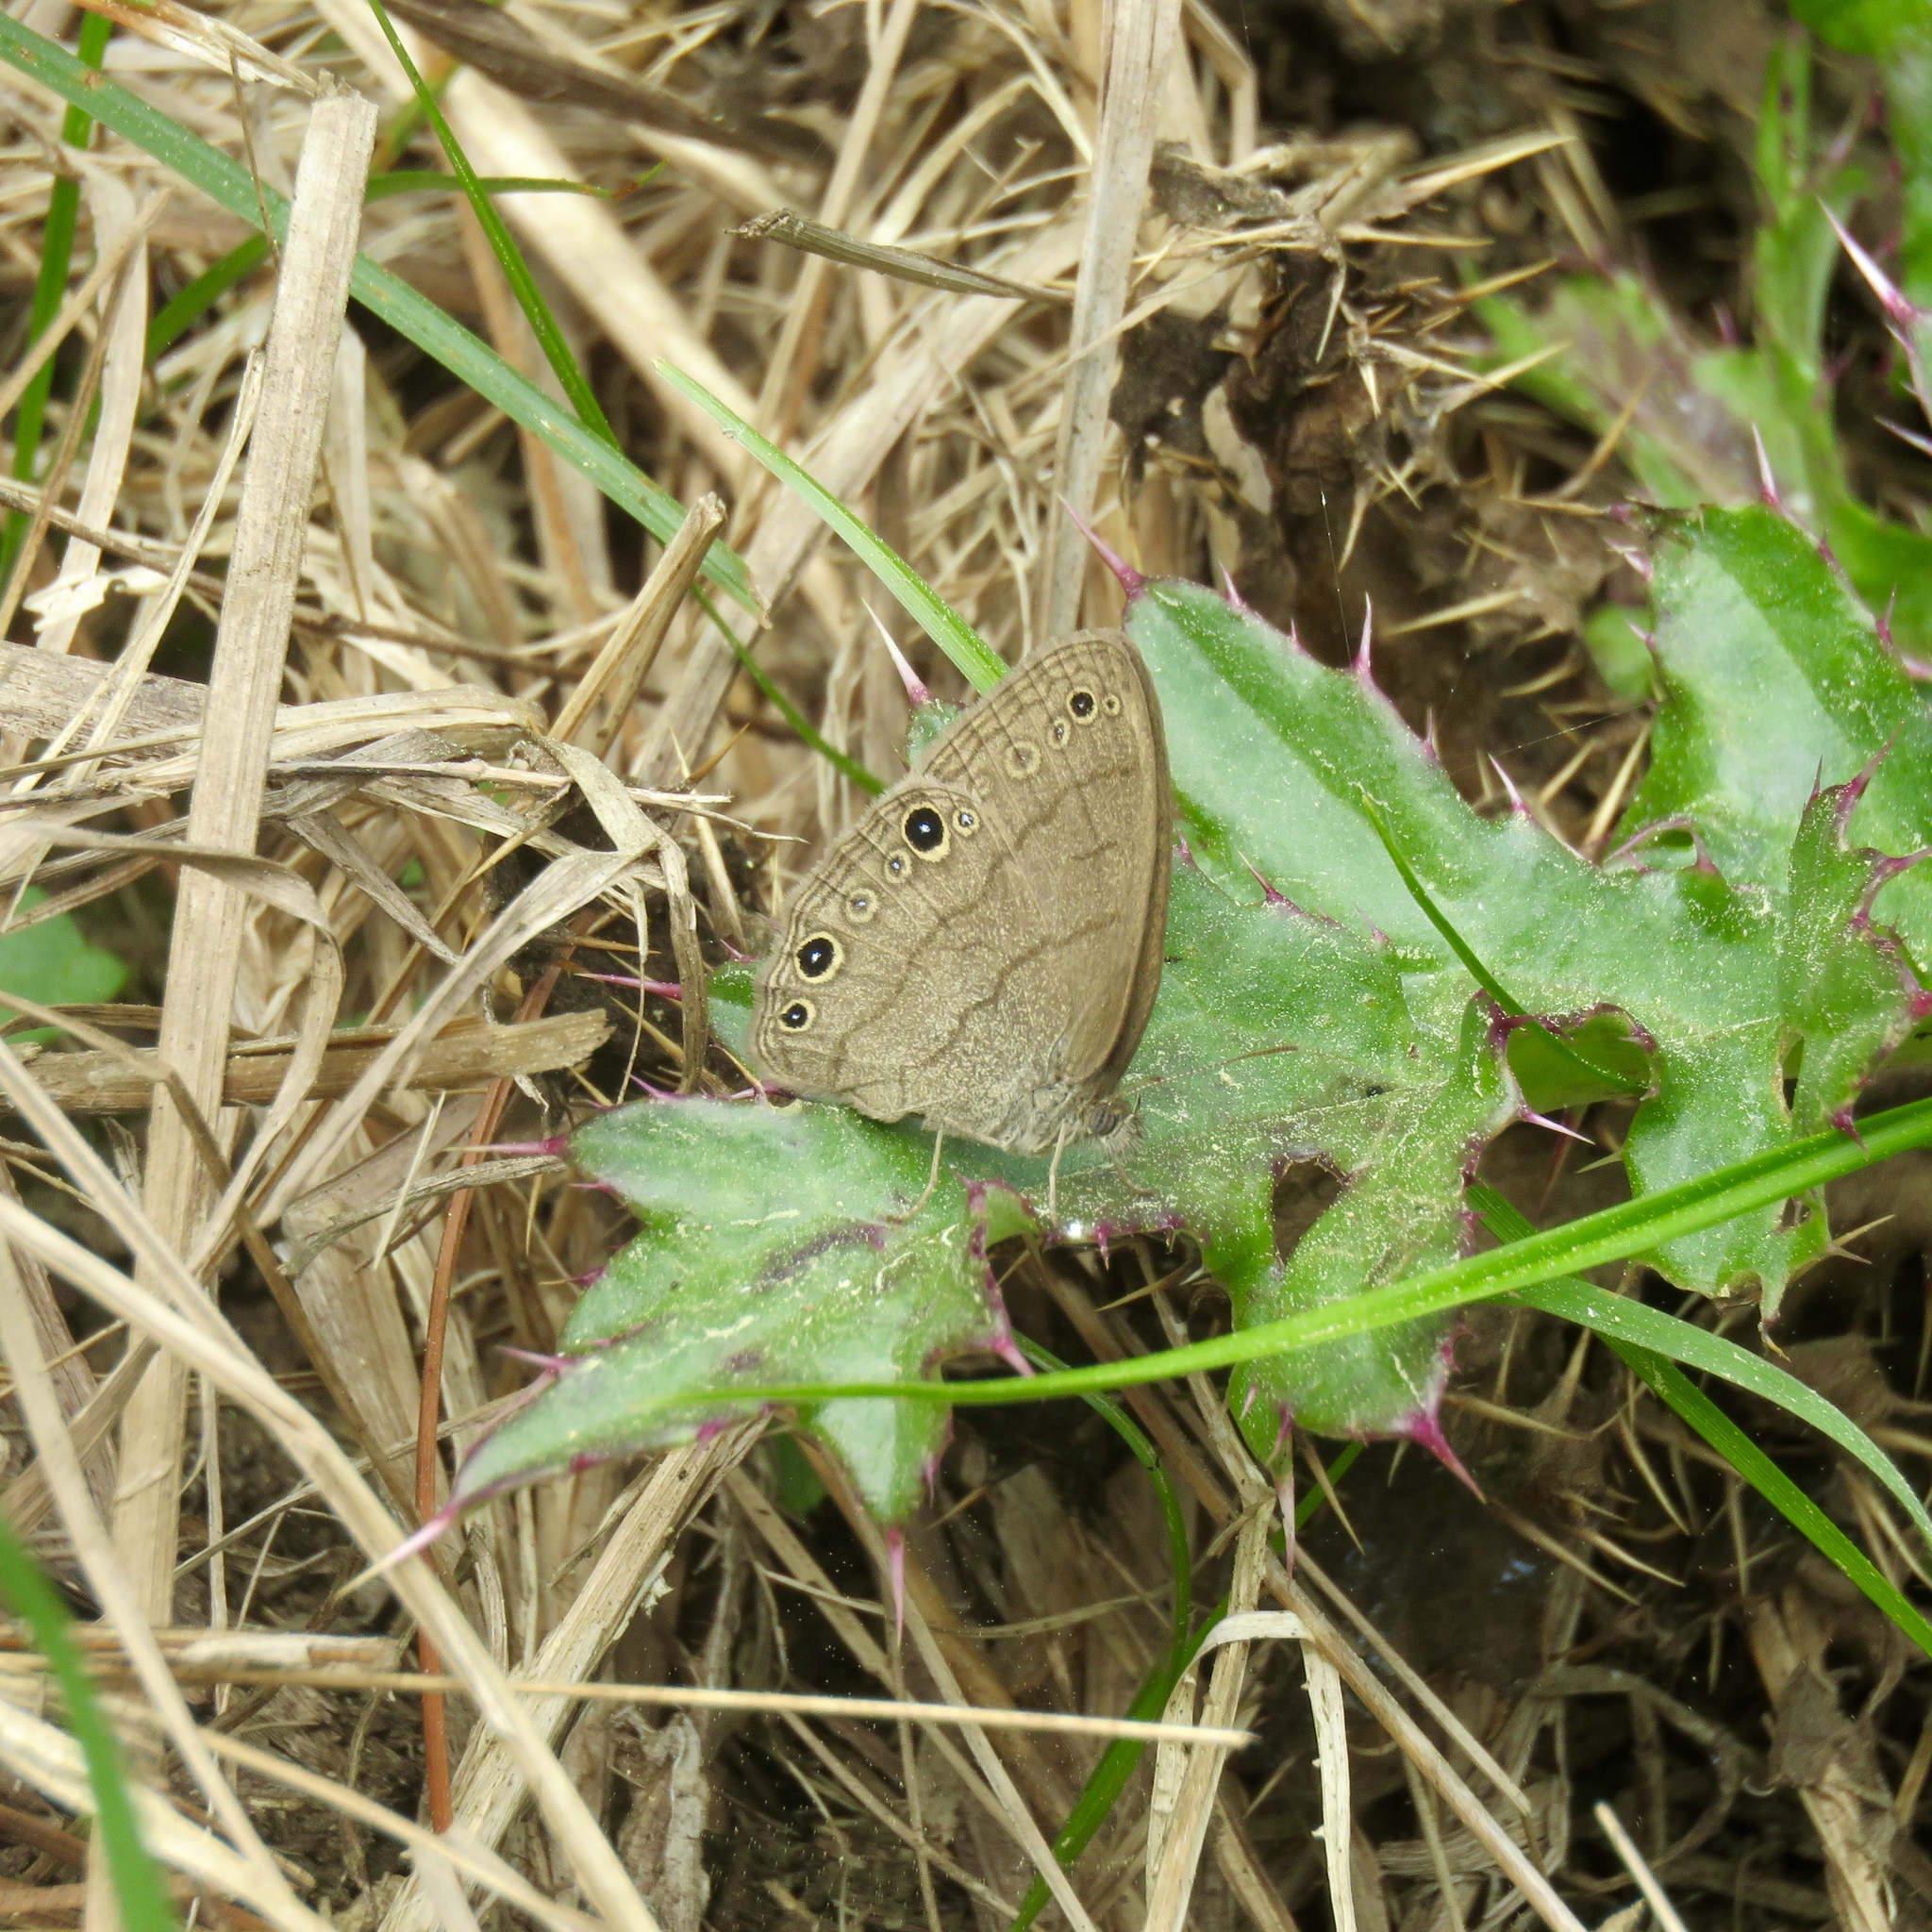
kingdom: Animalia
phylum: Arthropoda
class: Insecta
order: Lepidoptera
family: Nymphalidae
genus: Hermeuptychia
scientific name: Hermeuptychia hermes
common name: Hermes satyr
